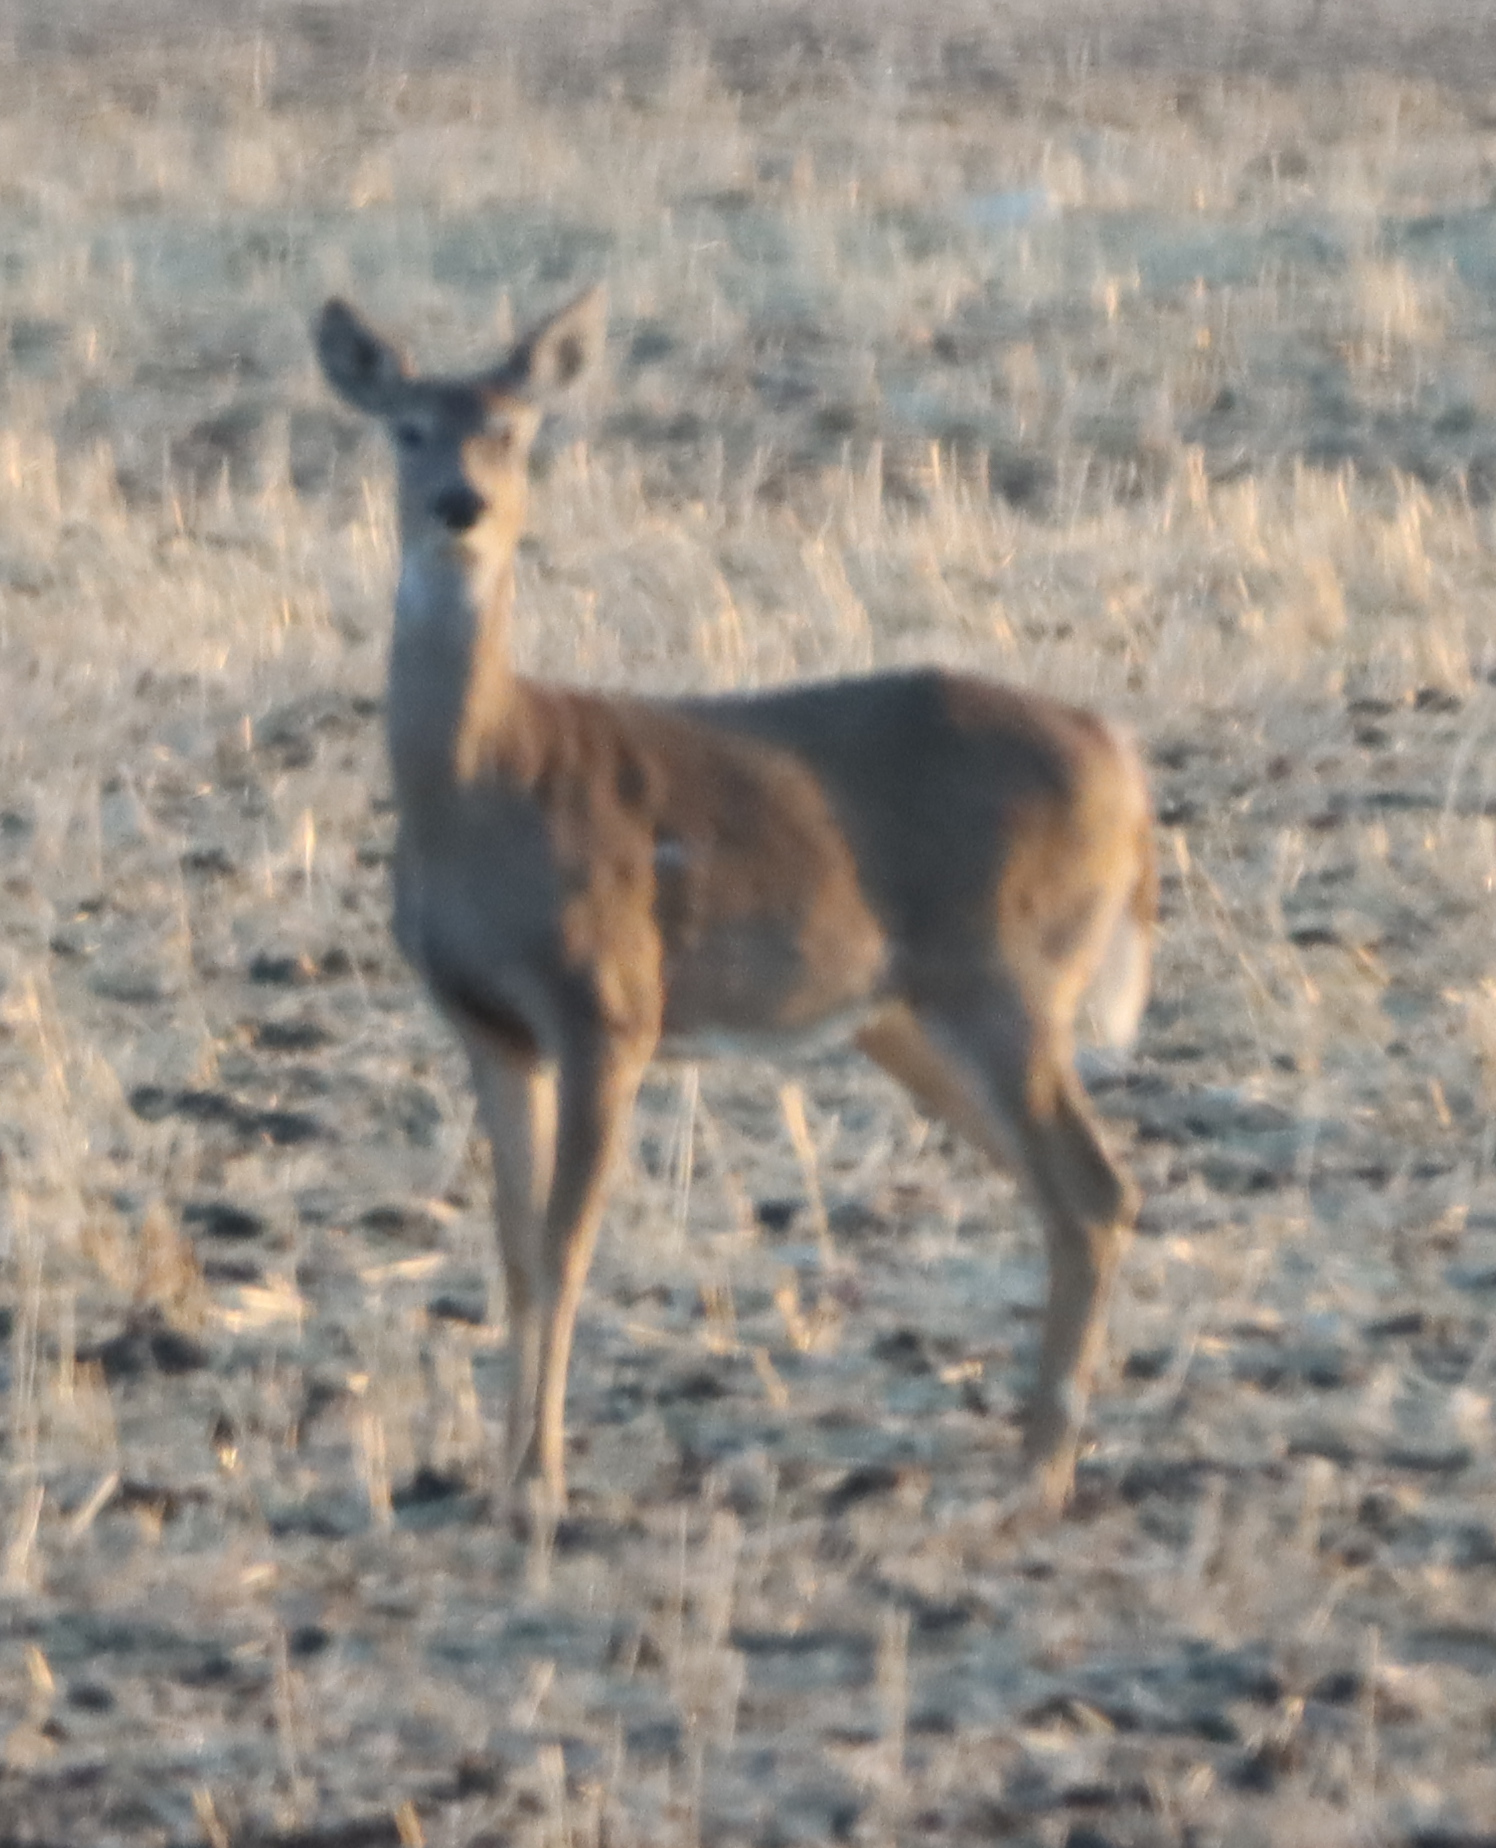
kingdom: Animalia
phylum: Chordata
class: Mammalia
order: Artiodactyla
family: Cervidae
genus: Odocoileus
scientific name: Odocoileus virginianus
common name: White-tailed deer
